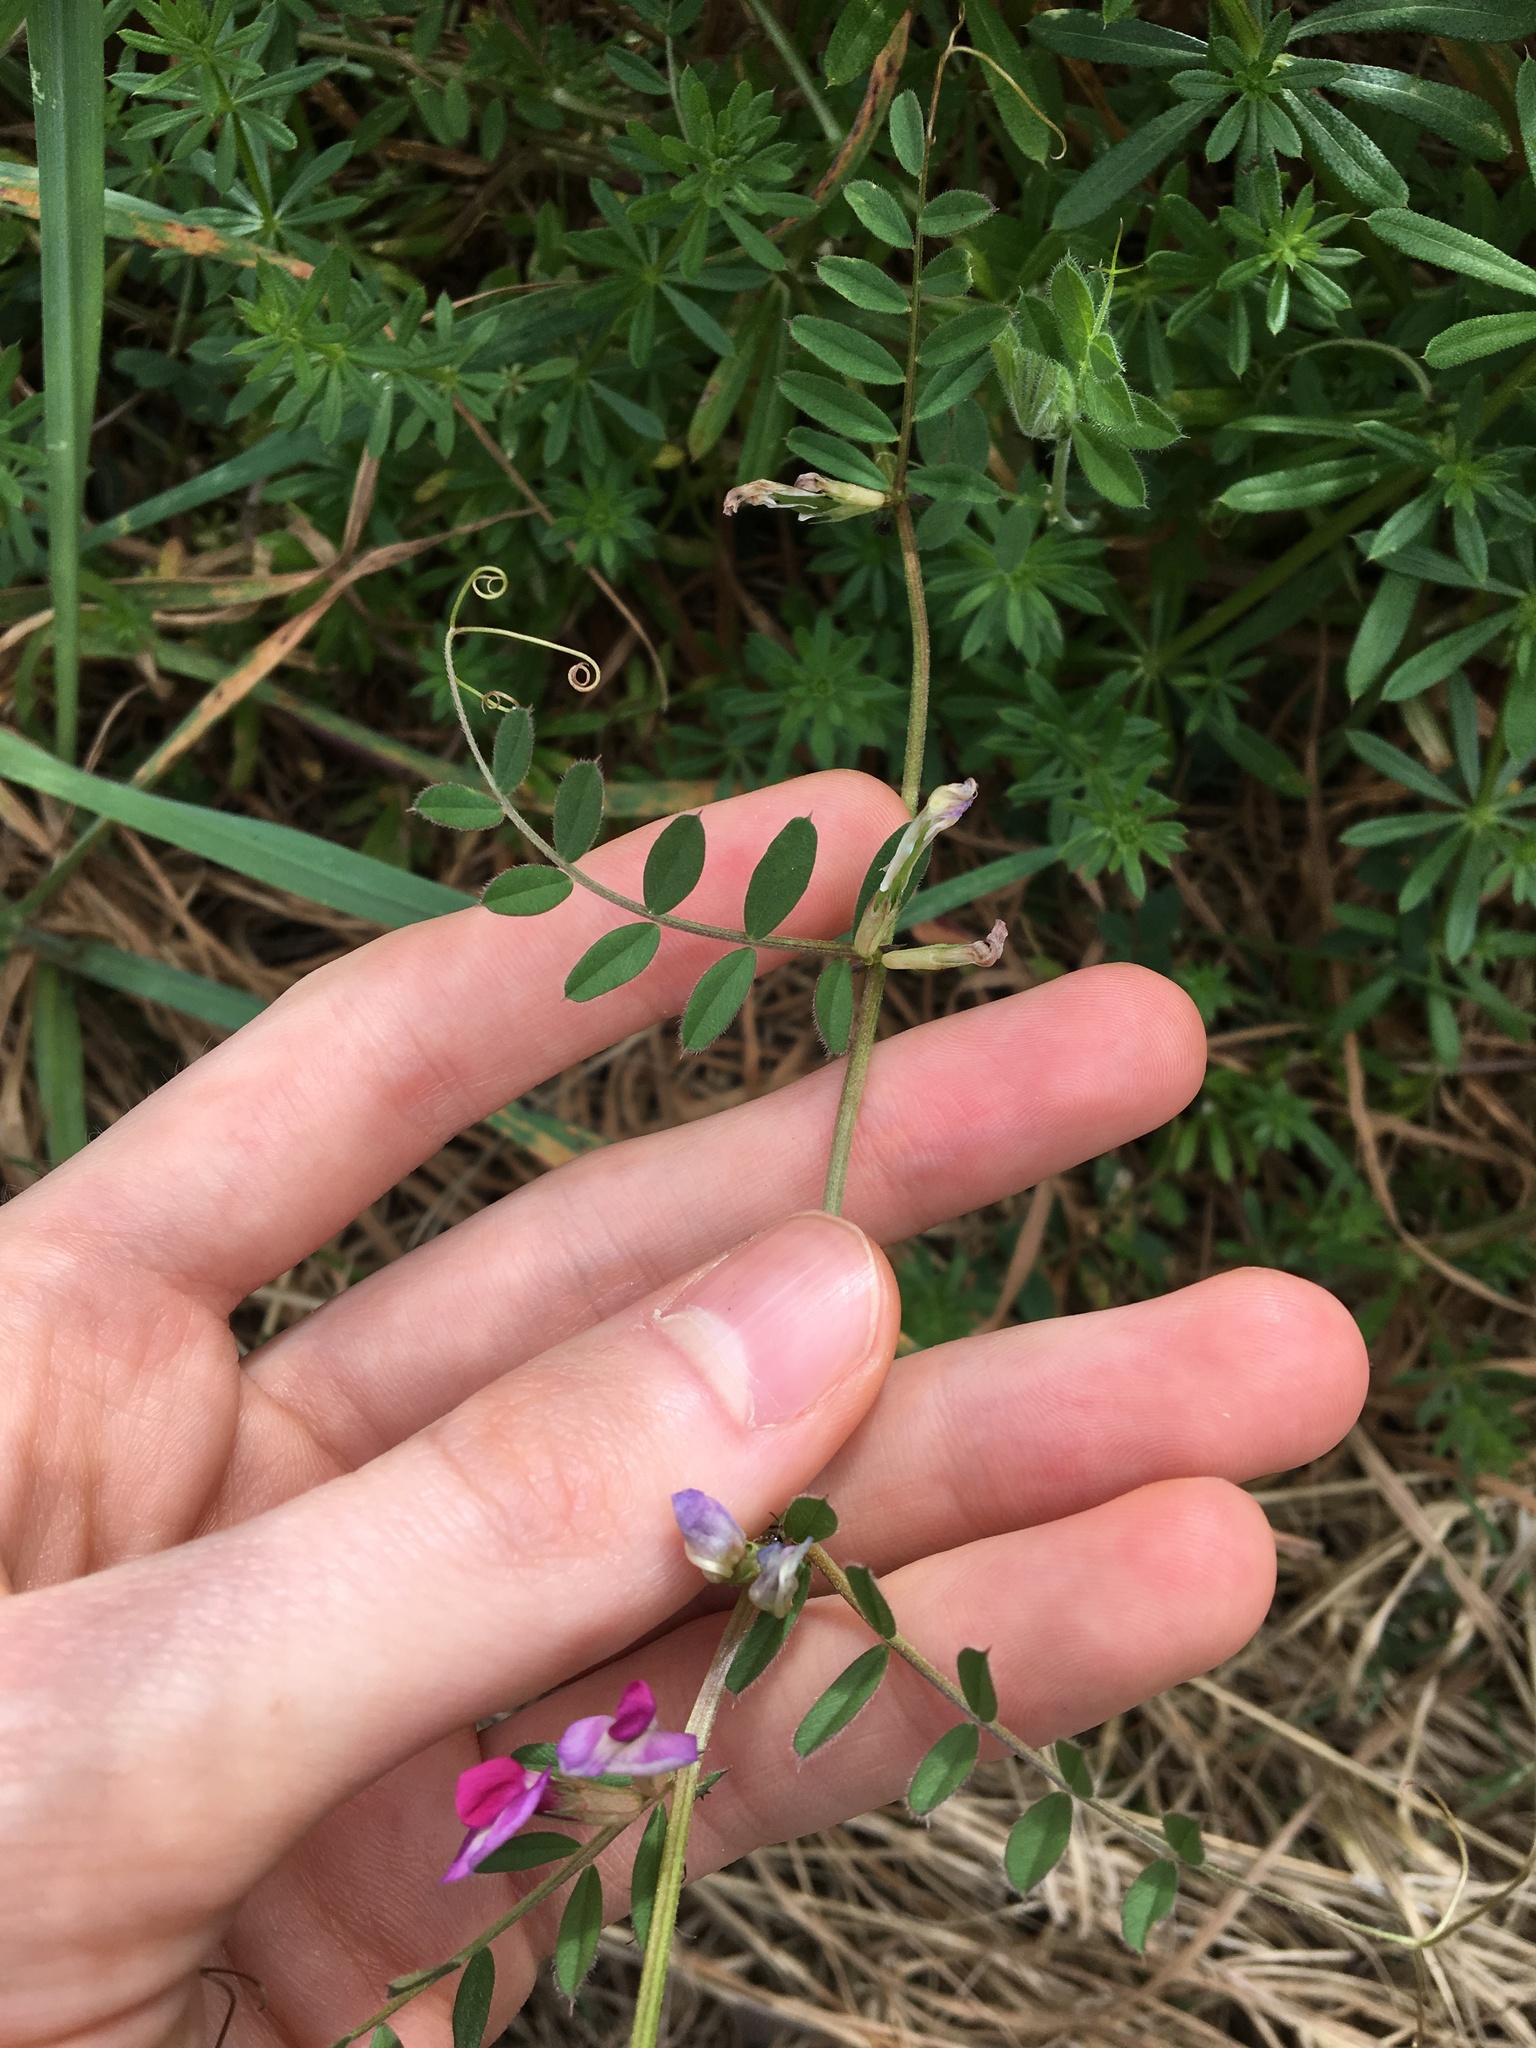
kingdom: Plantae
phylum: Tracheophyta
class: Magnoliopsida
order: Fabales
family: Fabaceae
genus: Vicia
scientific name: Vicia sativa
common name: Garden vetch
